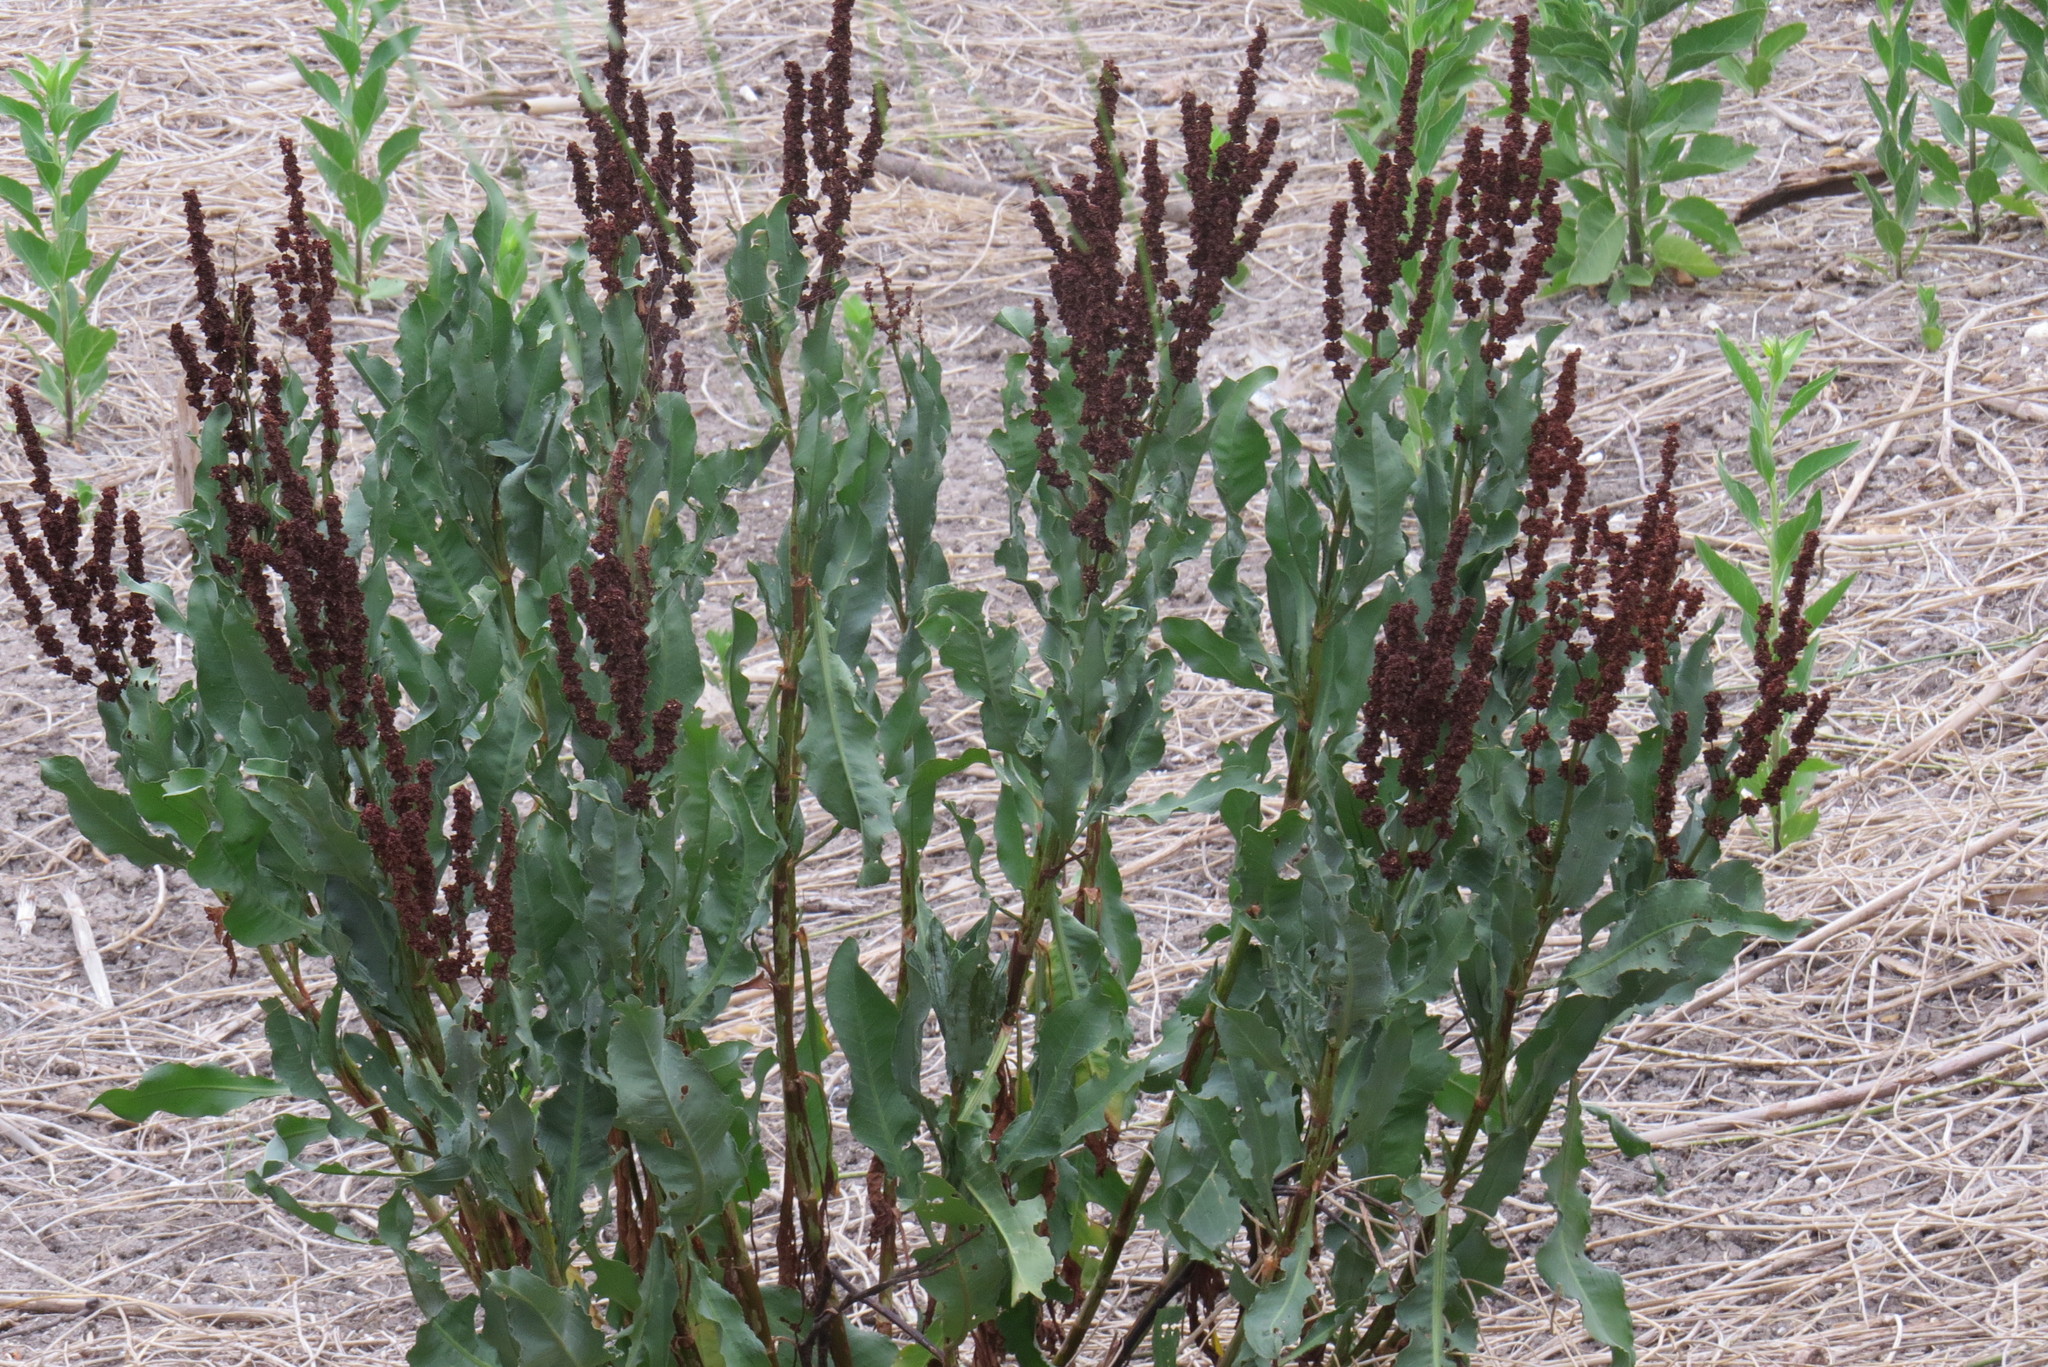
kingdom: Plantae
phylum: Tracheophyta
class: Magnoliopsida
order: Caryophyllales
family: Polygonaceae
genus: Rumex
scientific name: Rumex chrysocarpos
